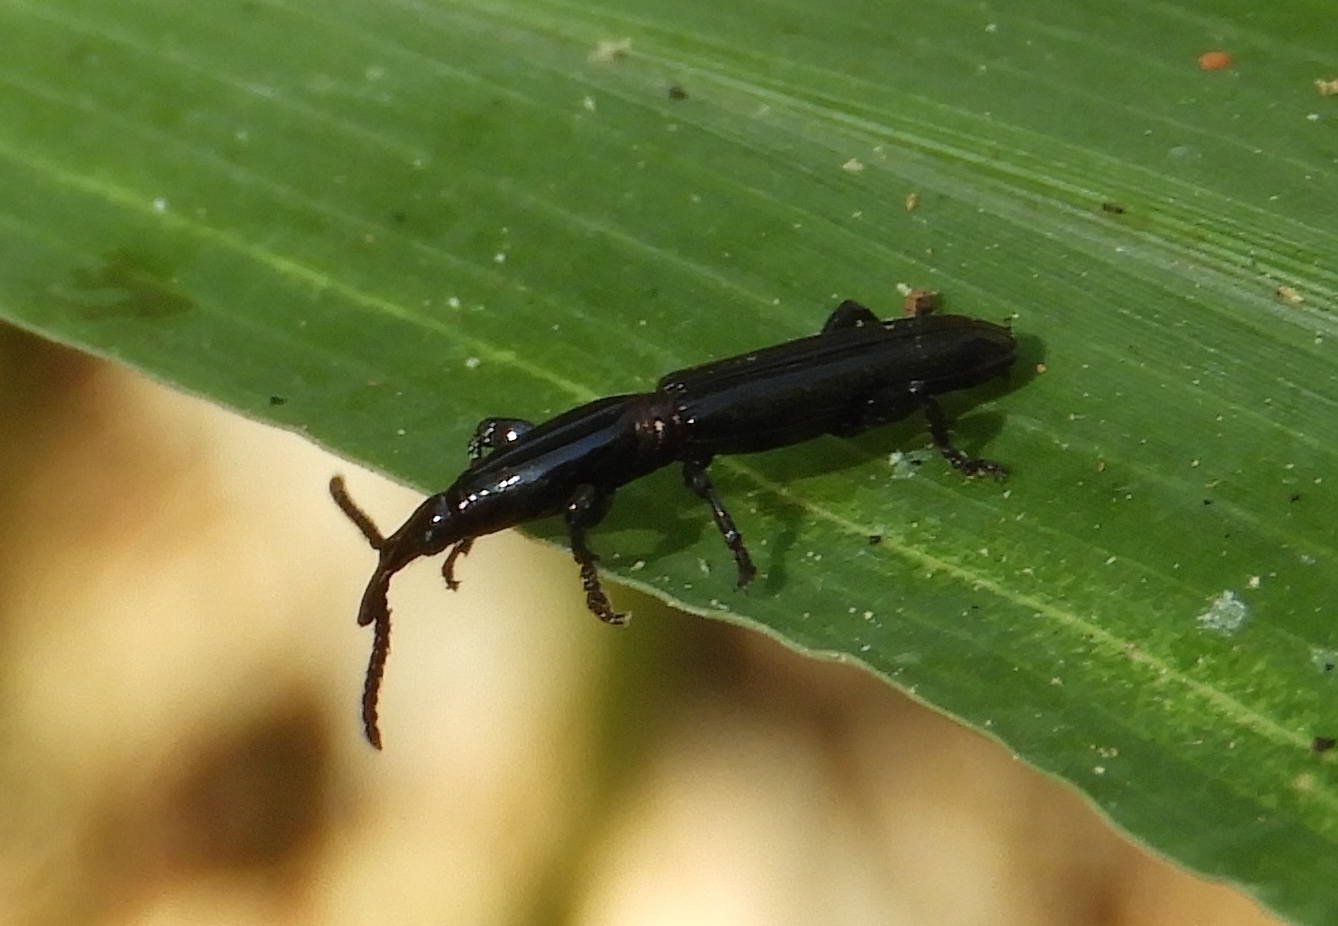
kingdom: Animalia
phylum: Arthropoda
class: Insecta
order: Coleoptera
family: Brentidae
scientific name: Brentidae
